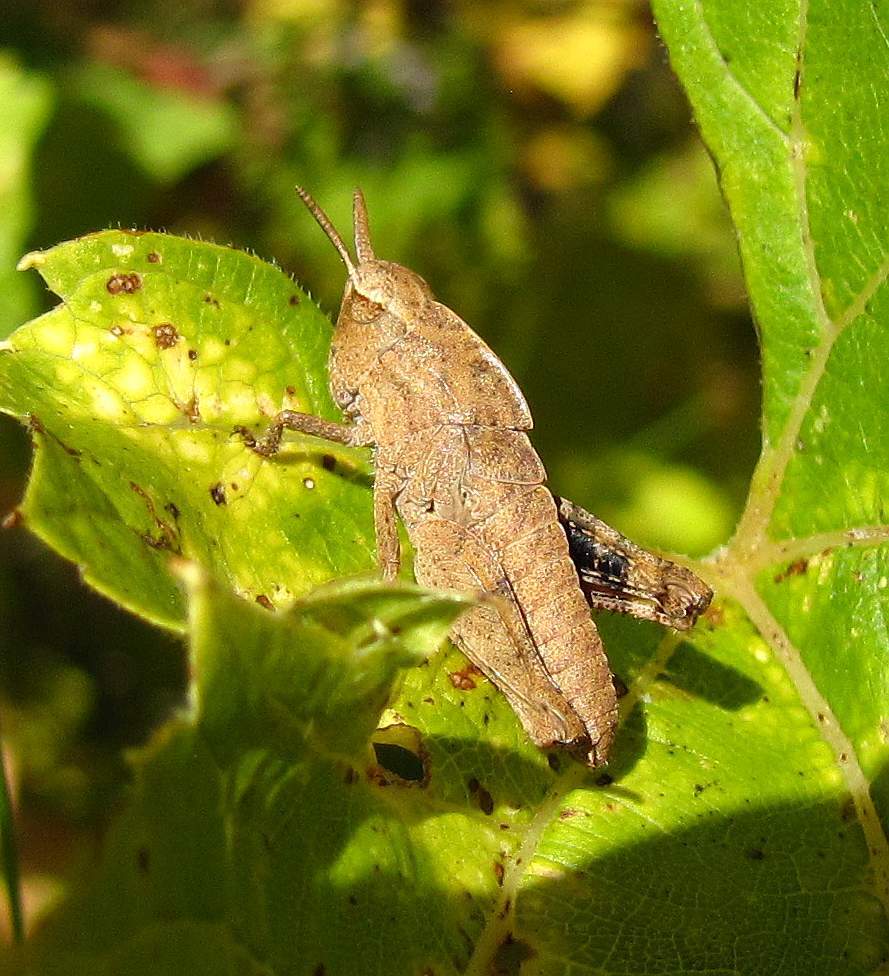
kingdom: Animalia
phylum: Arthropoda
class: Insecta
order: Orthoptera
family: Acrididae
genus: Chortophaga
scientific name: Chortophaga viridifasciata
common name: Green-striped grasshopper
